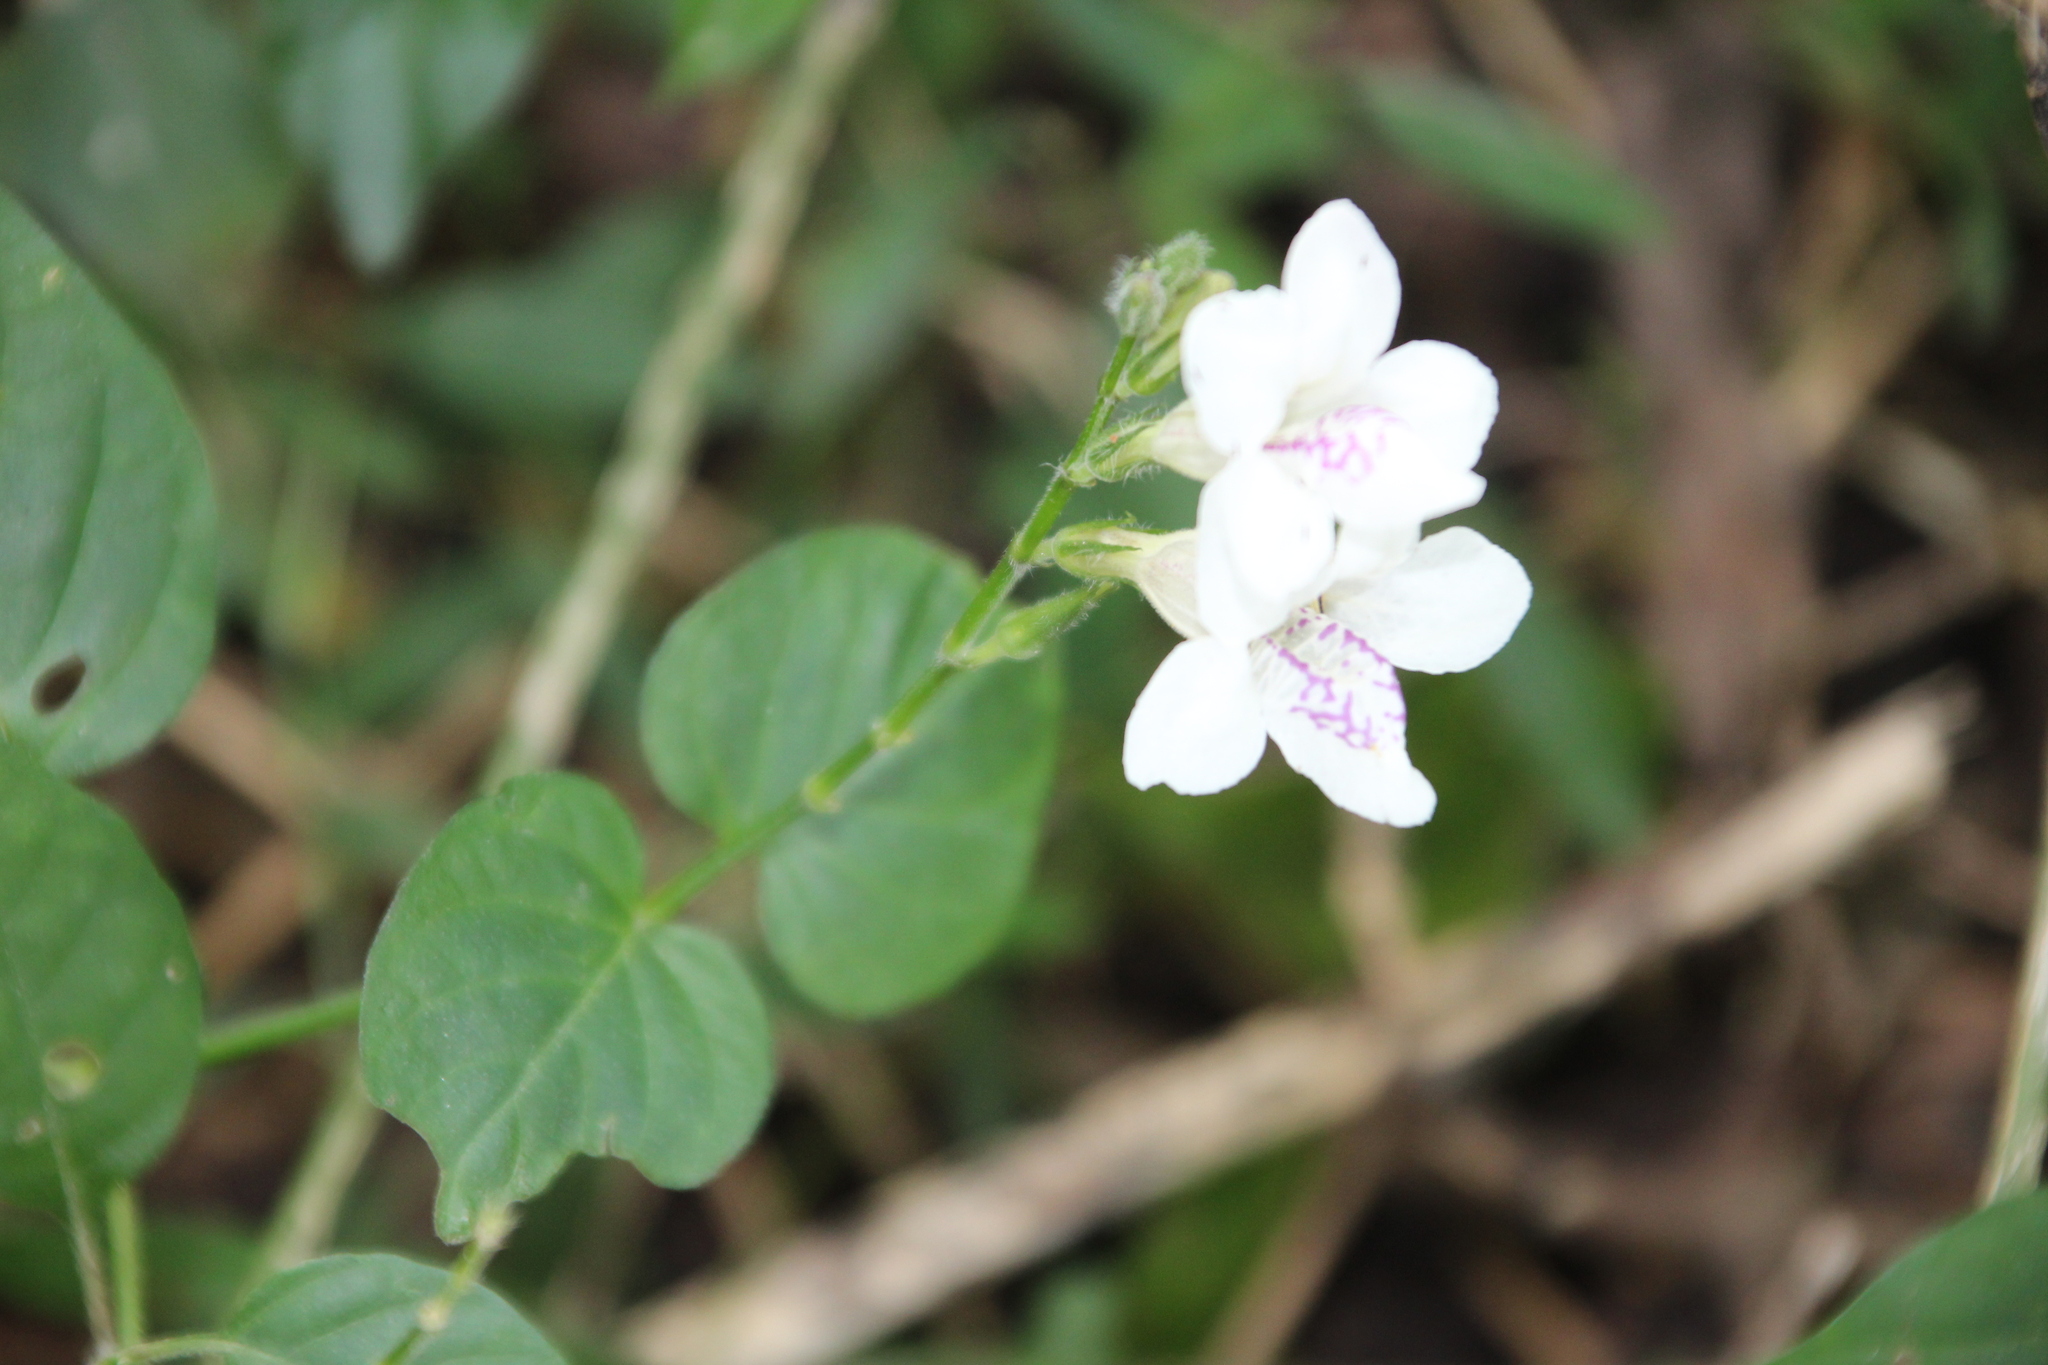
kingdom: Plantae
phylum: Tracheophyta
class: Magnoliopsida
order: Lamiales
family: Acanthaceae
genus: Asystasia
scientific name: Asystasia intrusa
